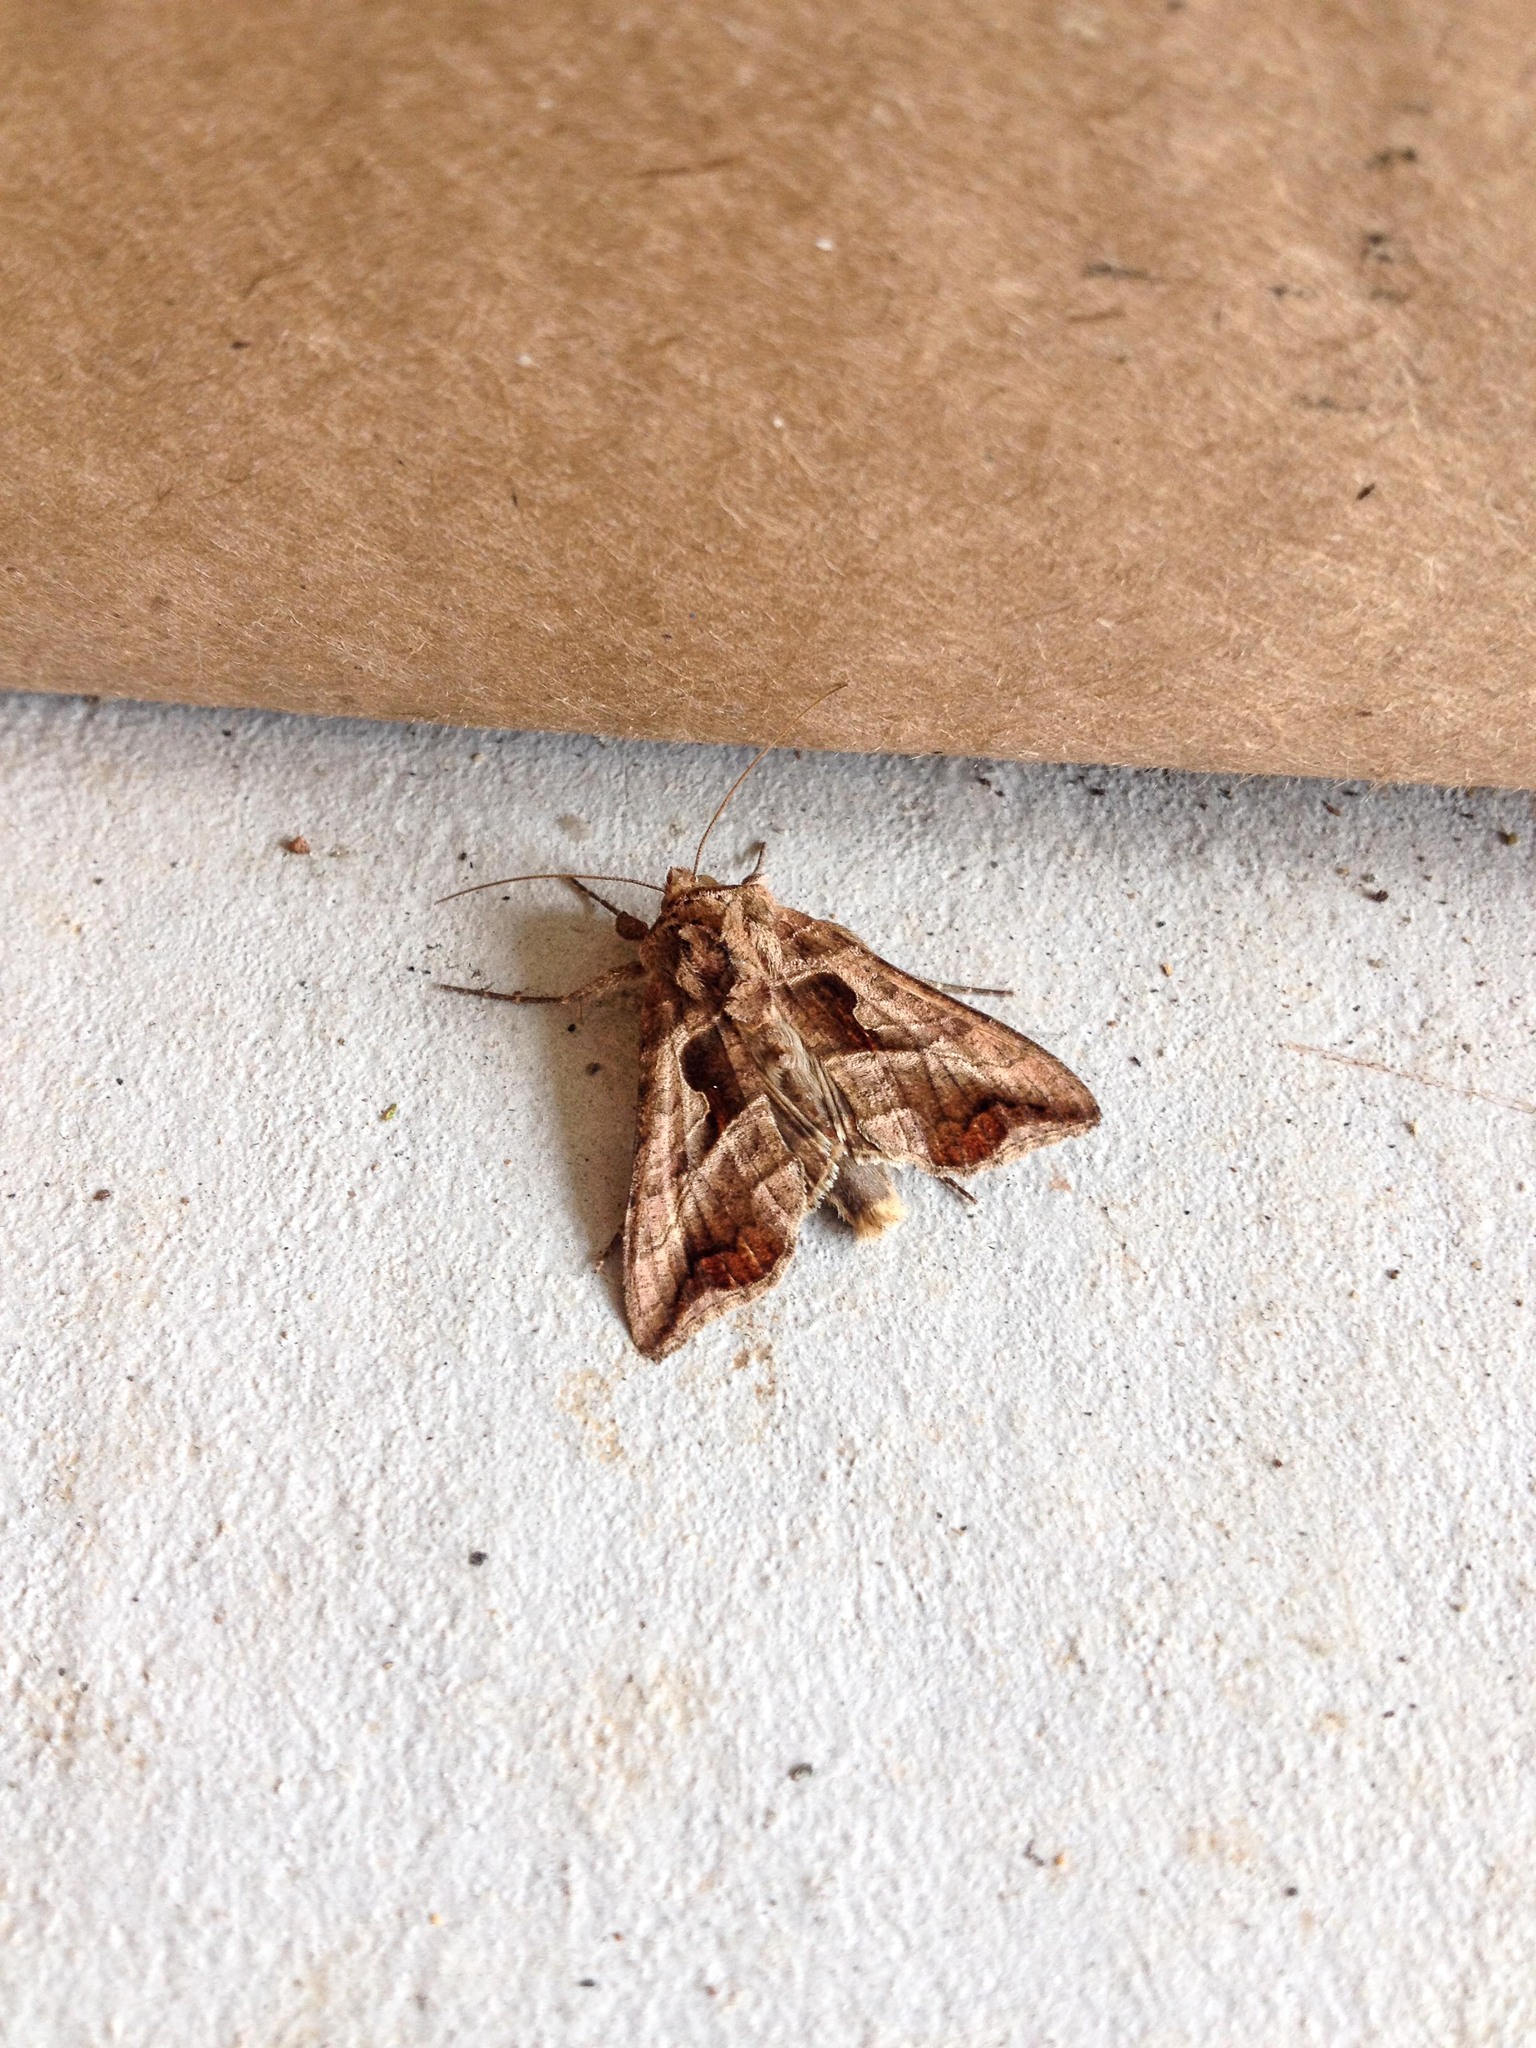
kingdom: Animalia
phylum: Arthropoda
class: Insecta
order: Lepidoptera
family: Noctuidae
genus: Autoplusia
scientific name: Autoplusia egenoides
